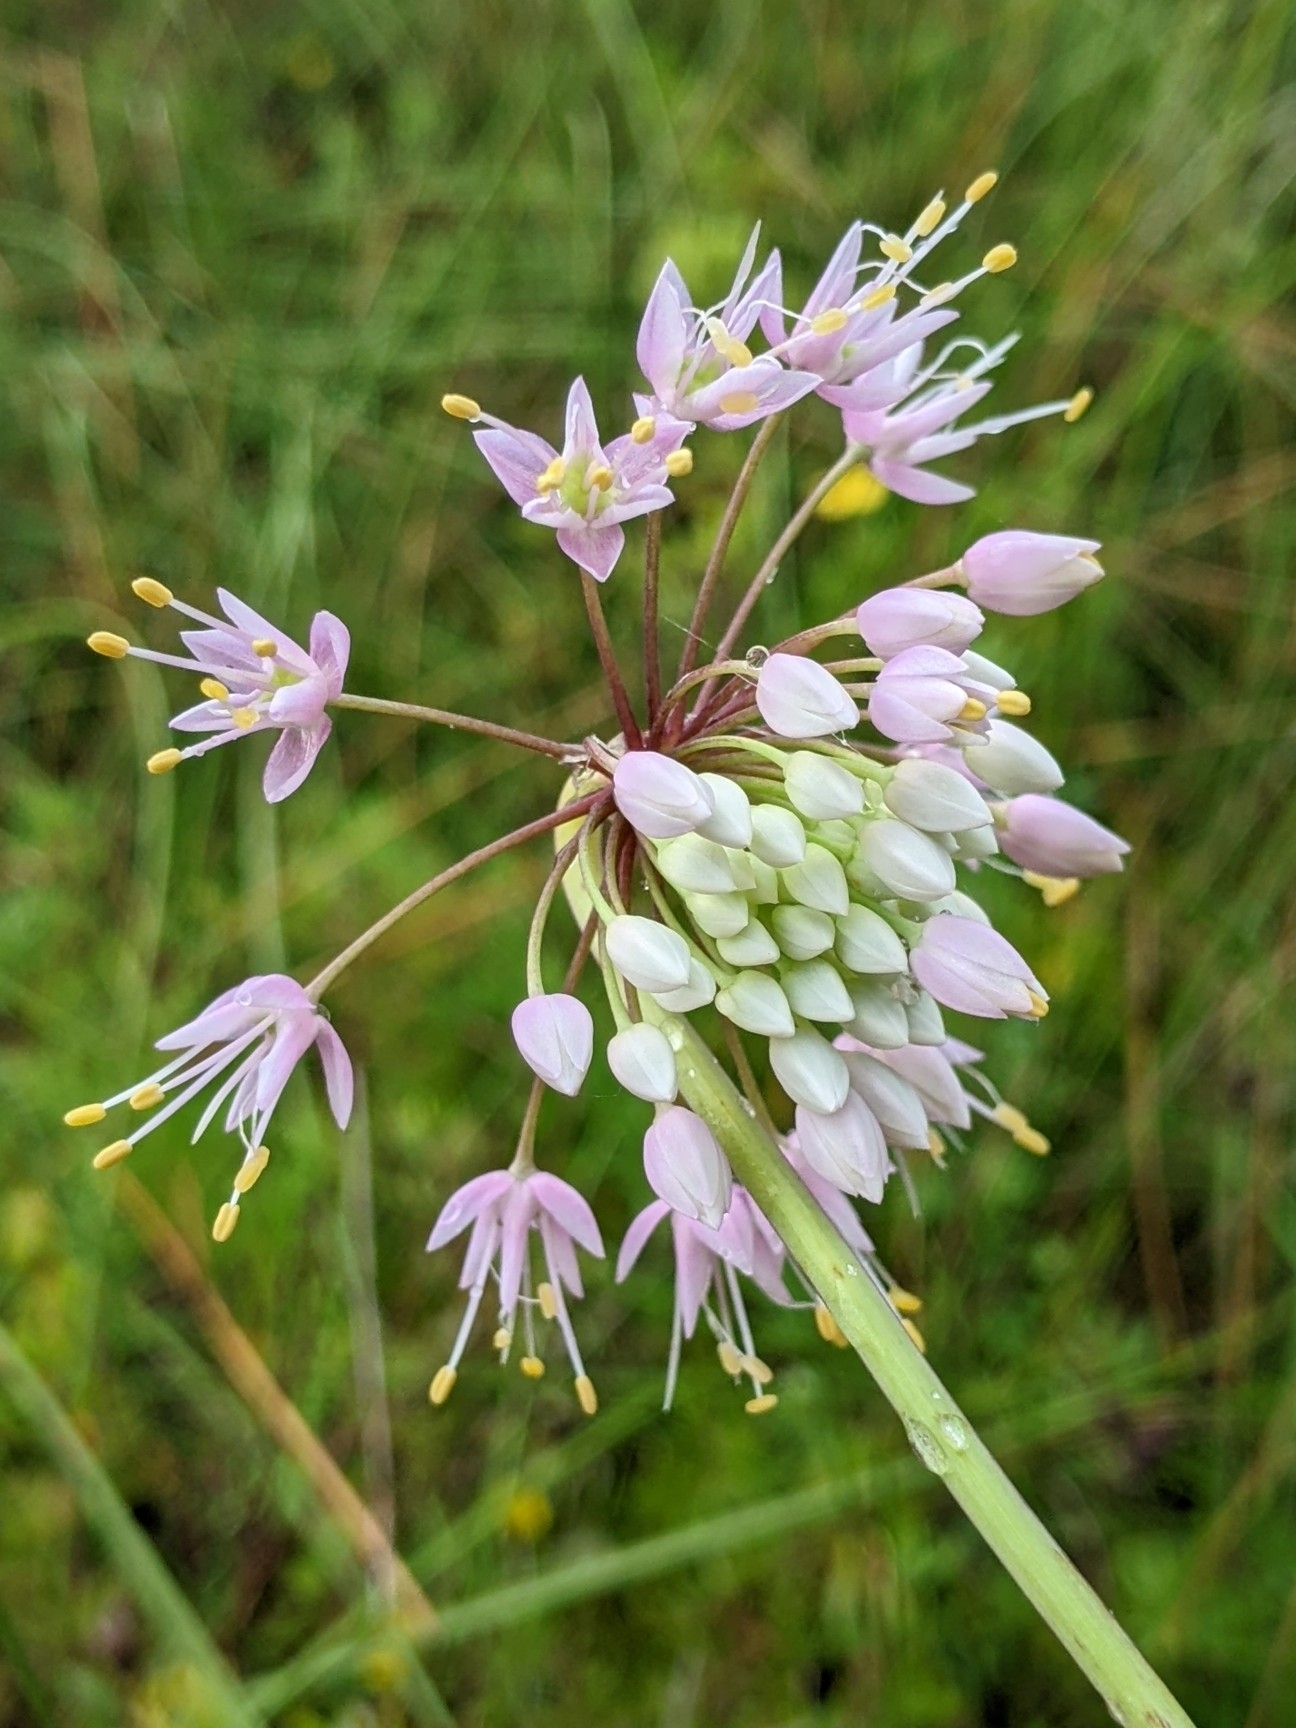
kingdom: Plantae
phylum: Tracheophyta
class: Liliopsida
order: Asparagales
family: Amaryllidaceae
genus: Allium
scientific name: Allium cernuum
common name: Nodding onion
